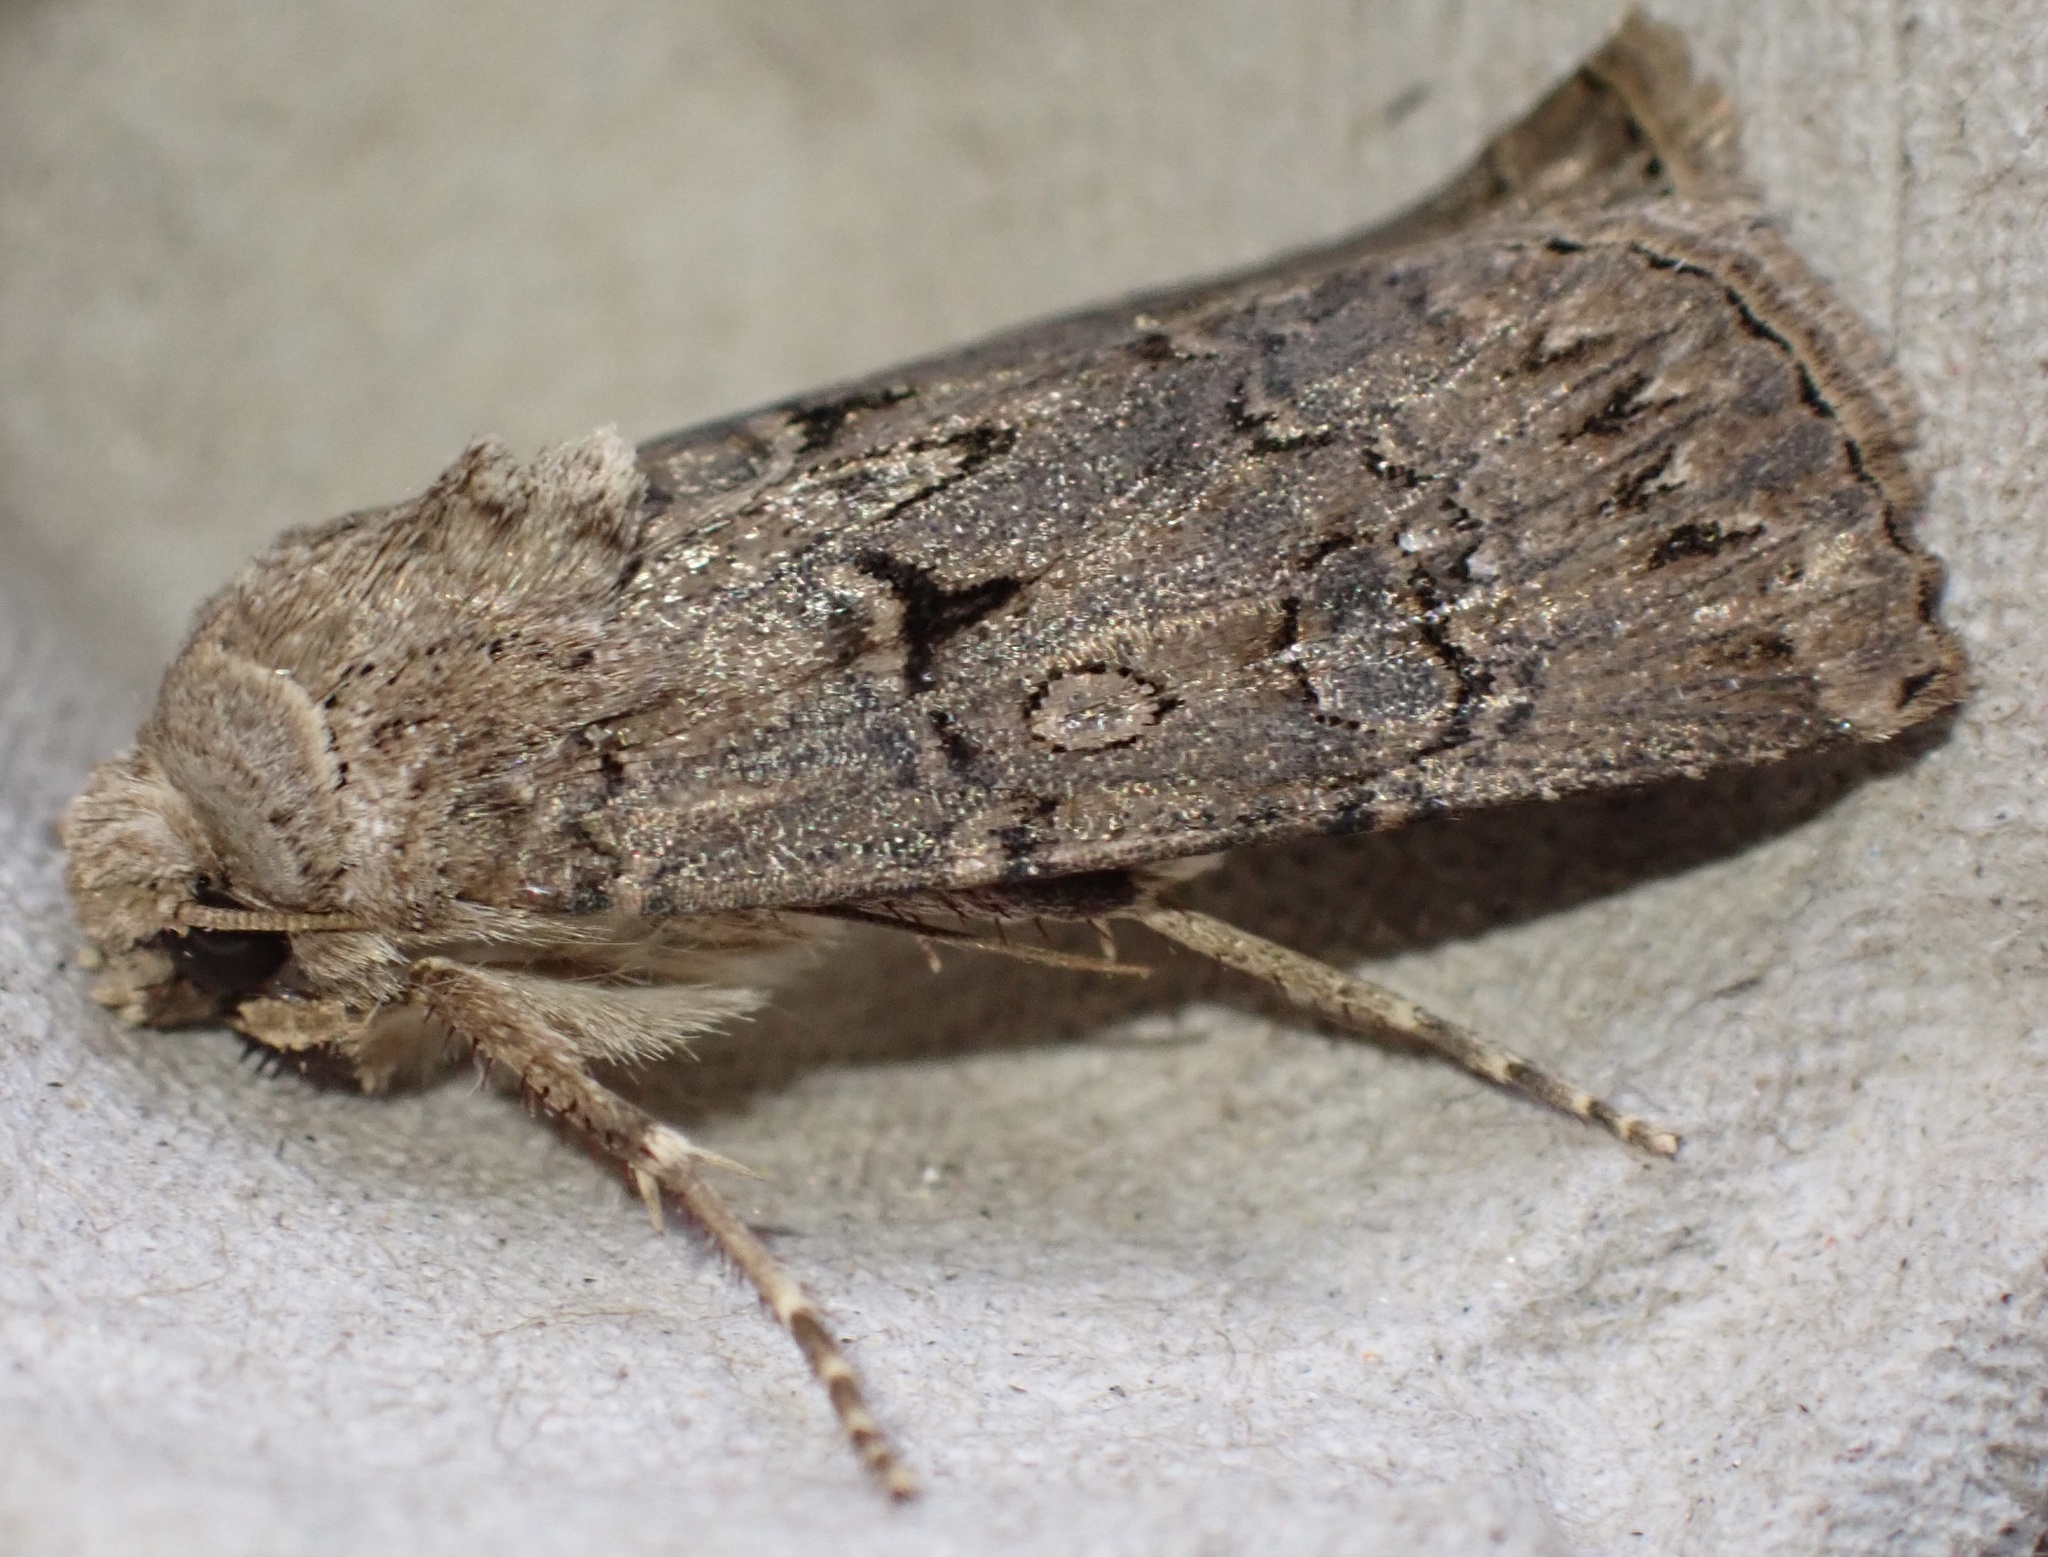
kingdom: Animalia
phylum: Arthropoda
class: Insecta
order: Lepidoptera
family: Noctuidae
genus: Agrotis
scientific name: Agrotis bigramma
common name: Great dart
